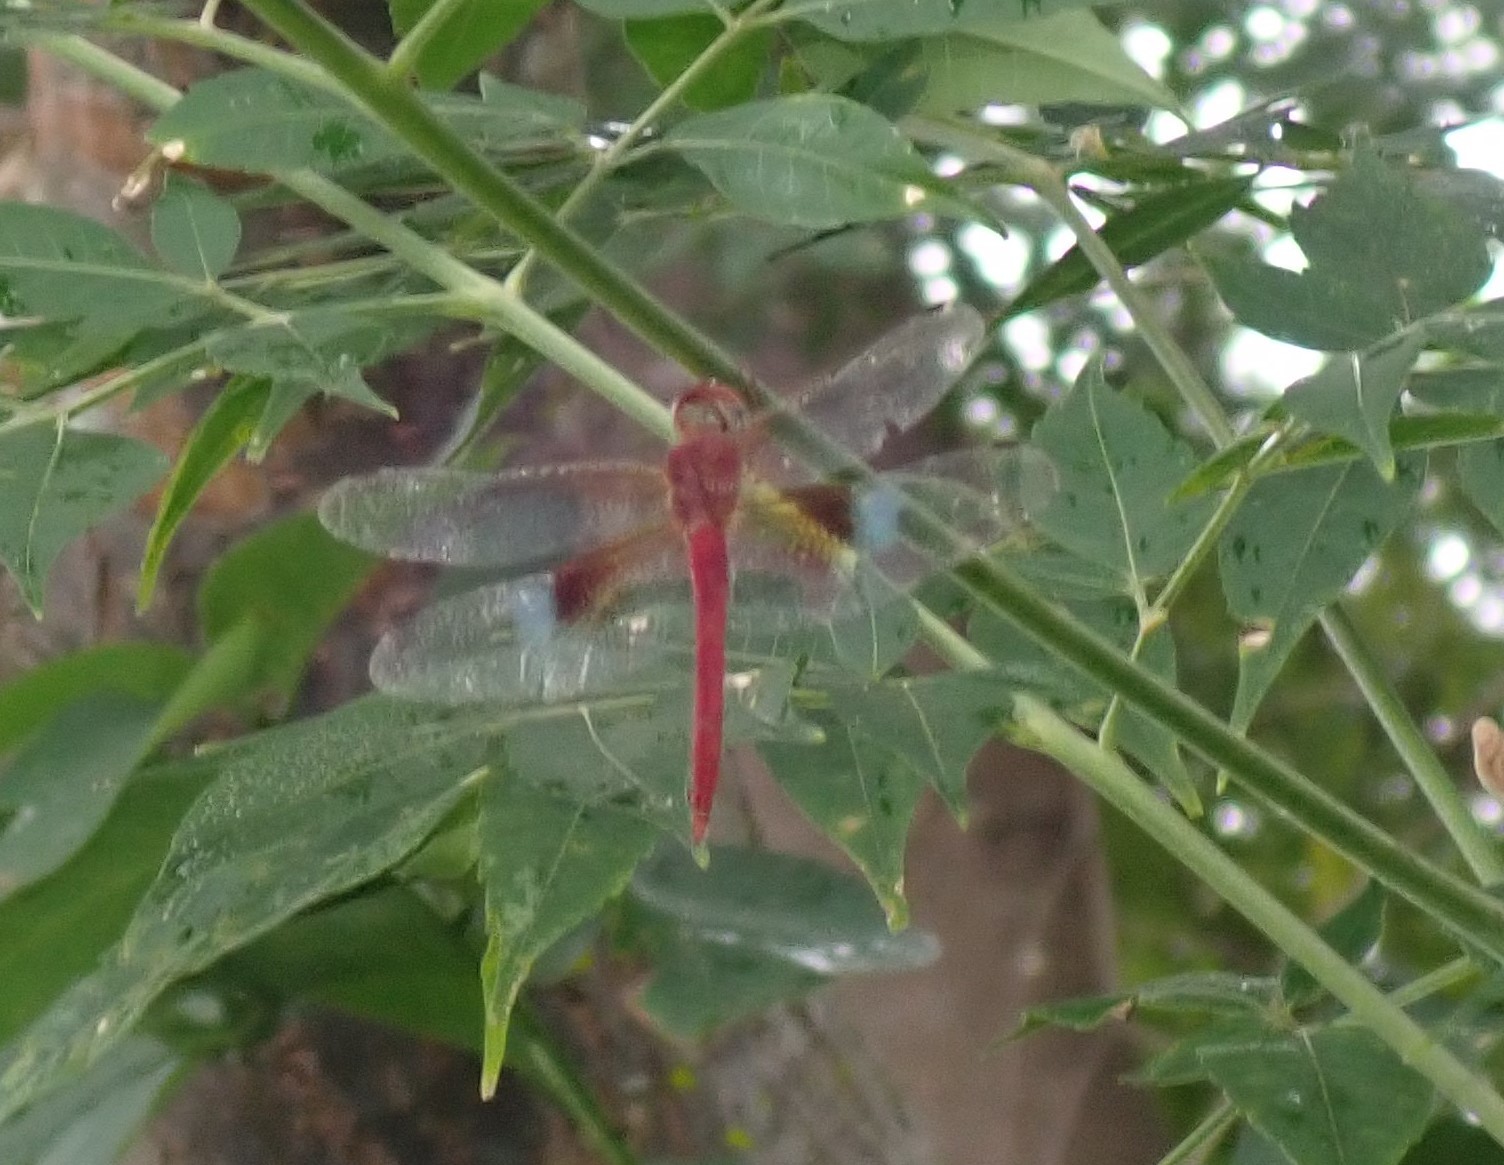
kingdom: Animalia
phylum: Arthropoda
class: Insecta
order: Odonata
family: Libellulidae
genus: Tholymis
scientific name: Tholymis tillarga
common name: Coral-tailed cloud wing
